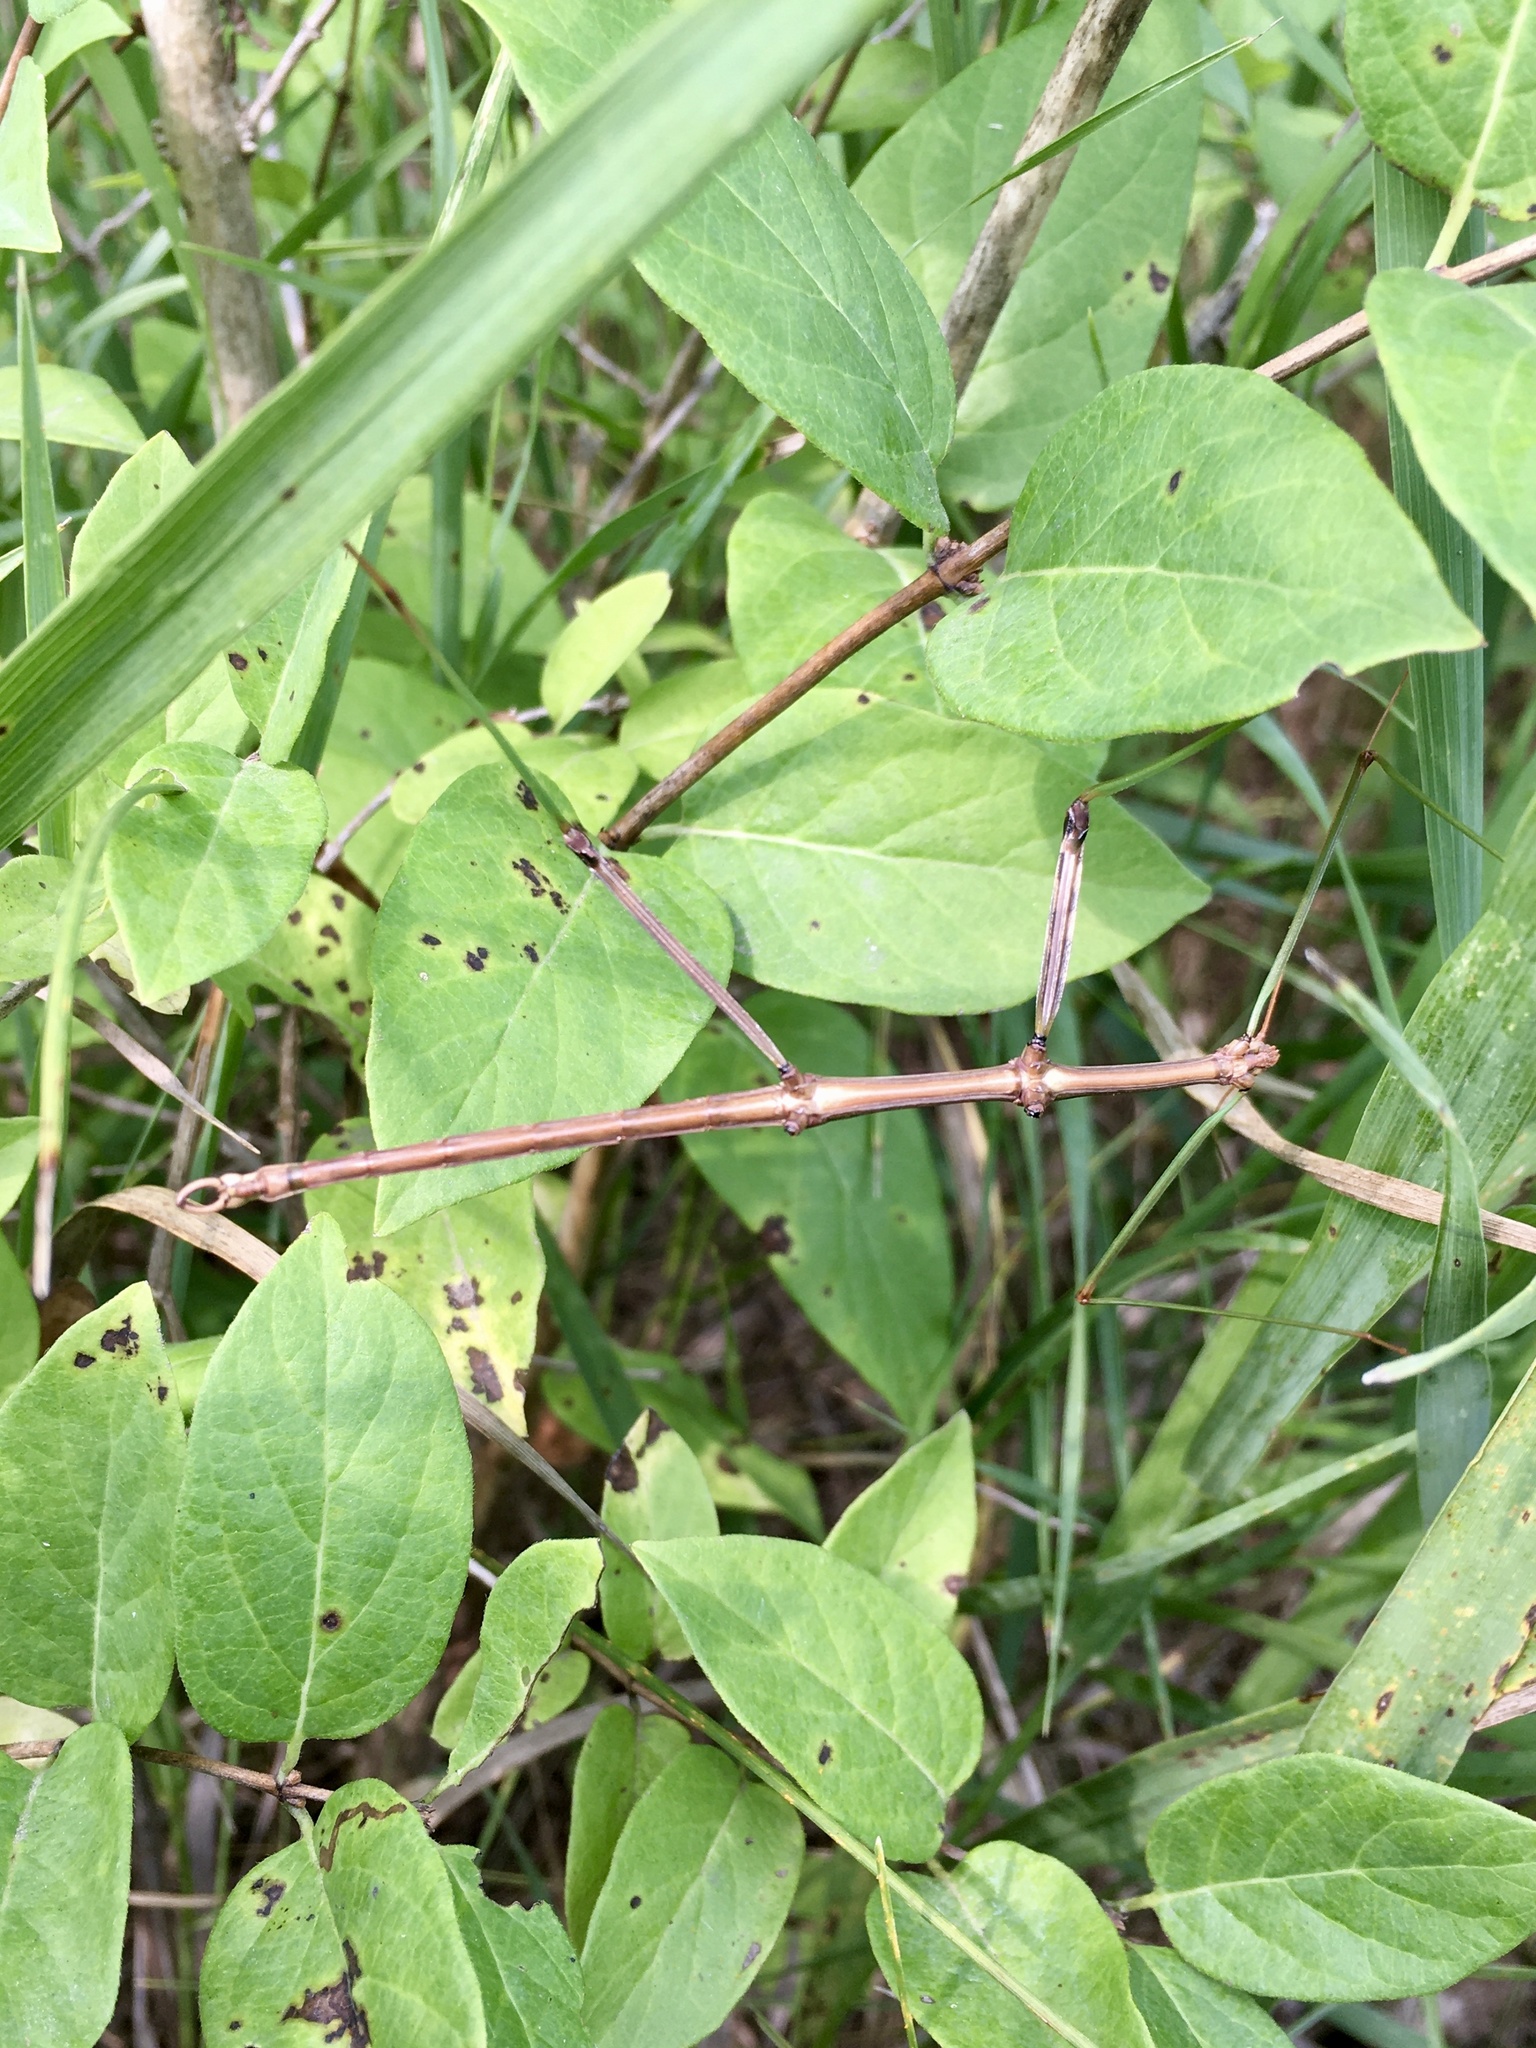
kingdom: Animalia
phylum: Arthropoda
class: Insecta
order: Phasmida
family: Diapheromeridae
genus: Diapheromera
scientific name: Diapheromera femorata
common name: Common american walkingstick
